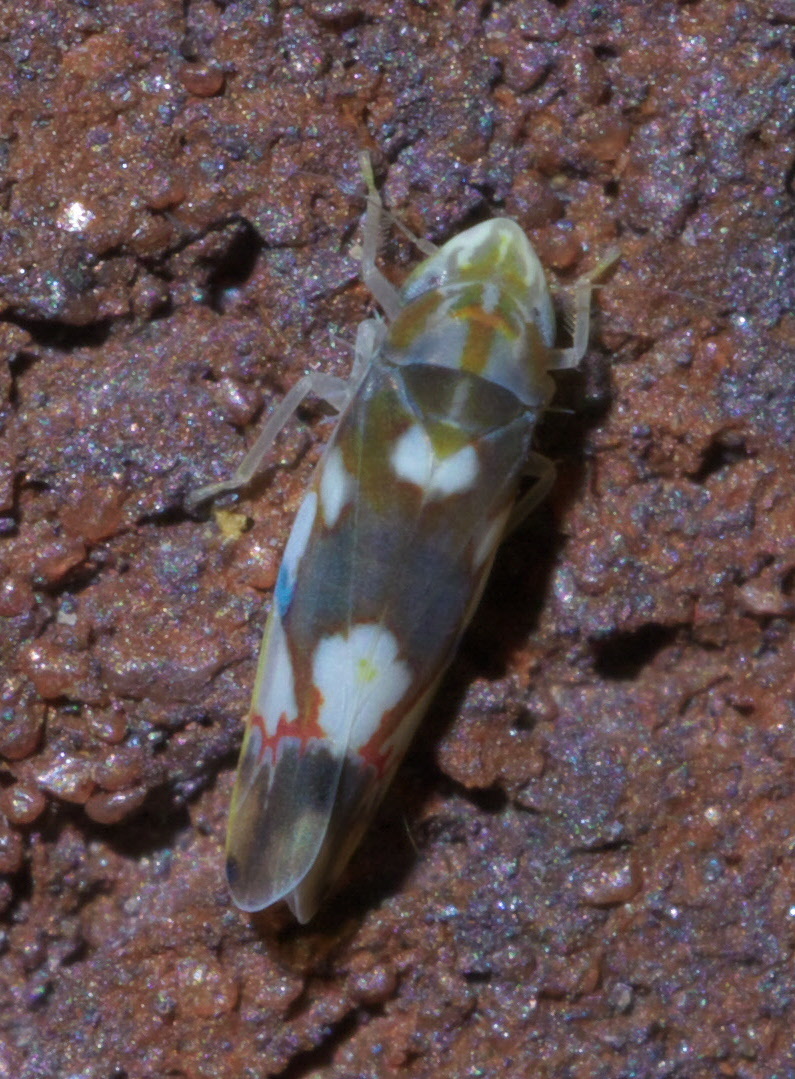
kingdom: Animalia
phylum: Arthropoda
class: Insecta
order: Hemiptera
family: Cicadellidae
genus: Erythroneura
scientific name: Erythroneura elegans
